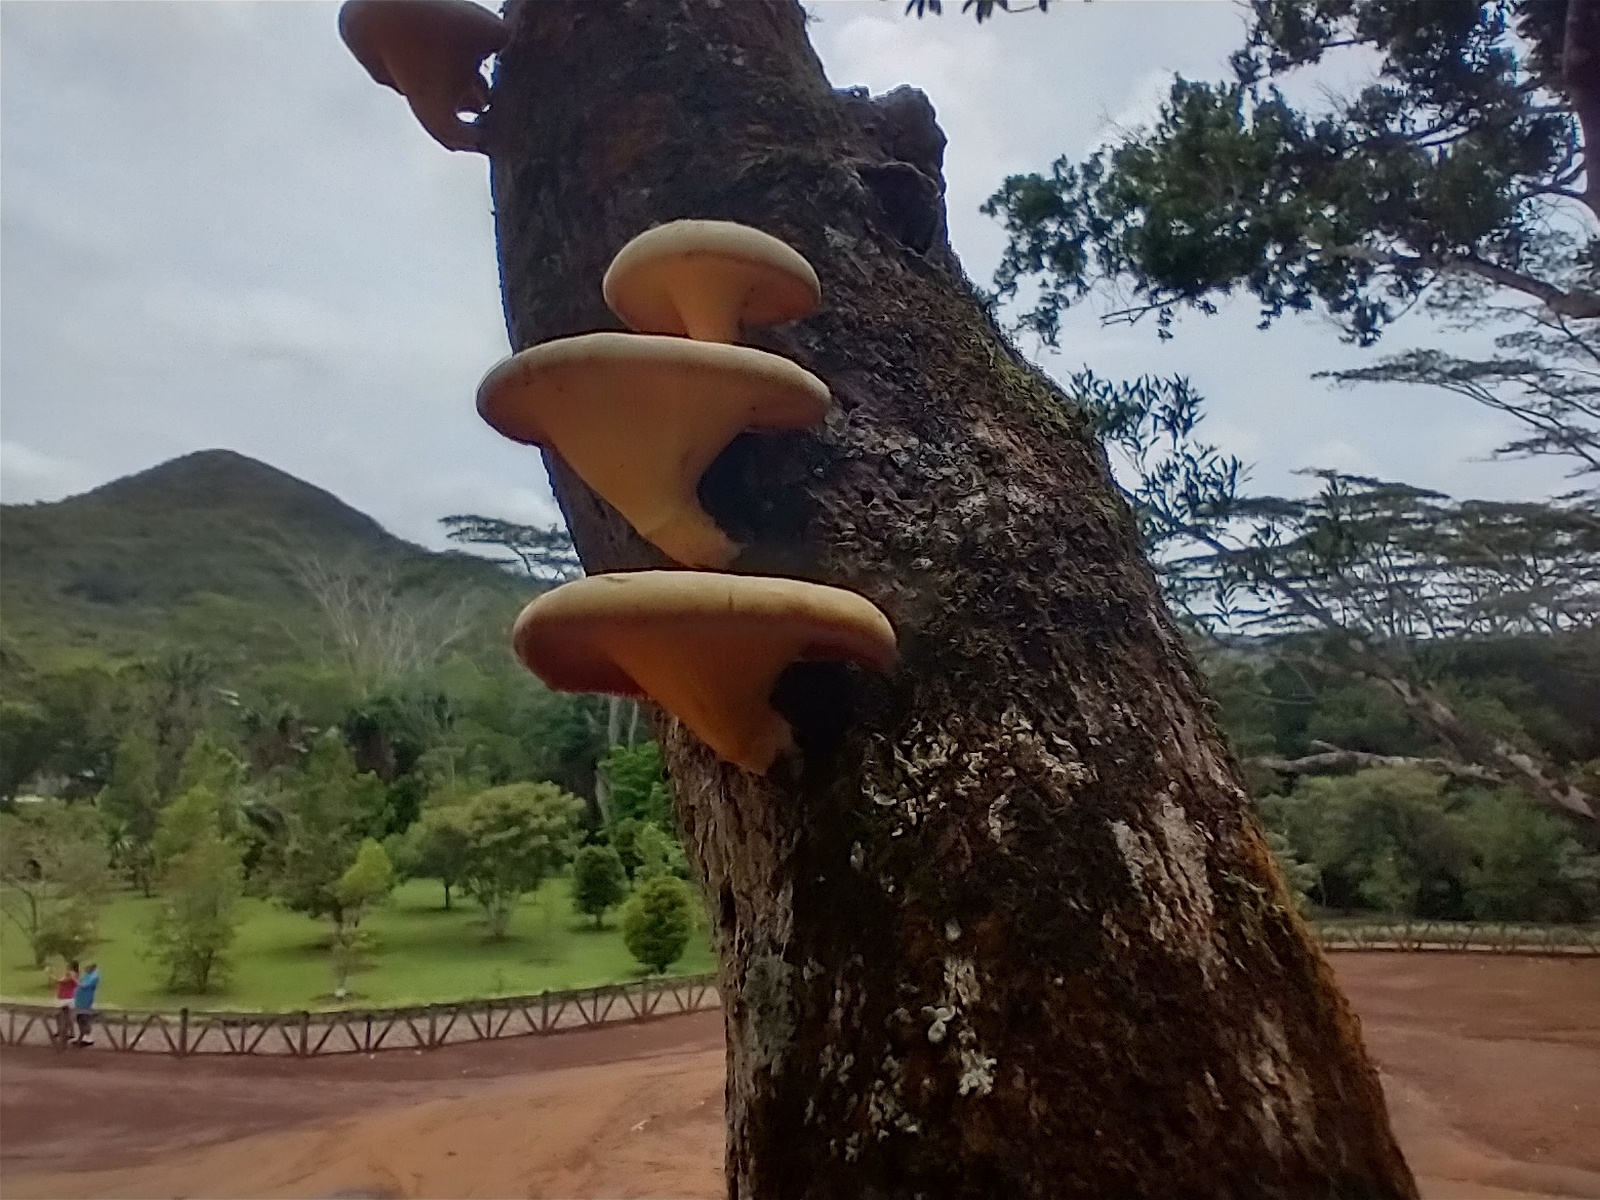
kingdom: Fungi
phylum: Basidiomycota
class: Agaricomycetes
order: Polyporales
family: Polyporaceae
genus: Lentinus
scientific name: Lentinus sajor-caju
